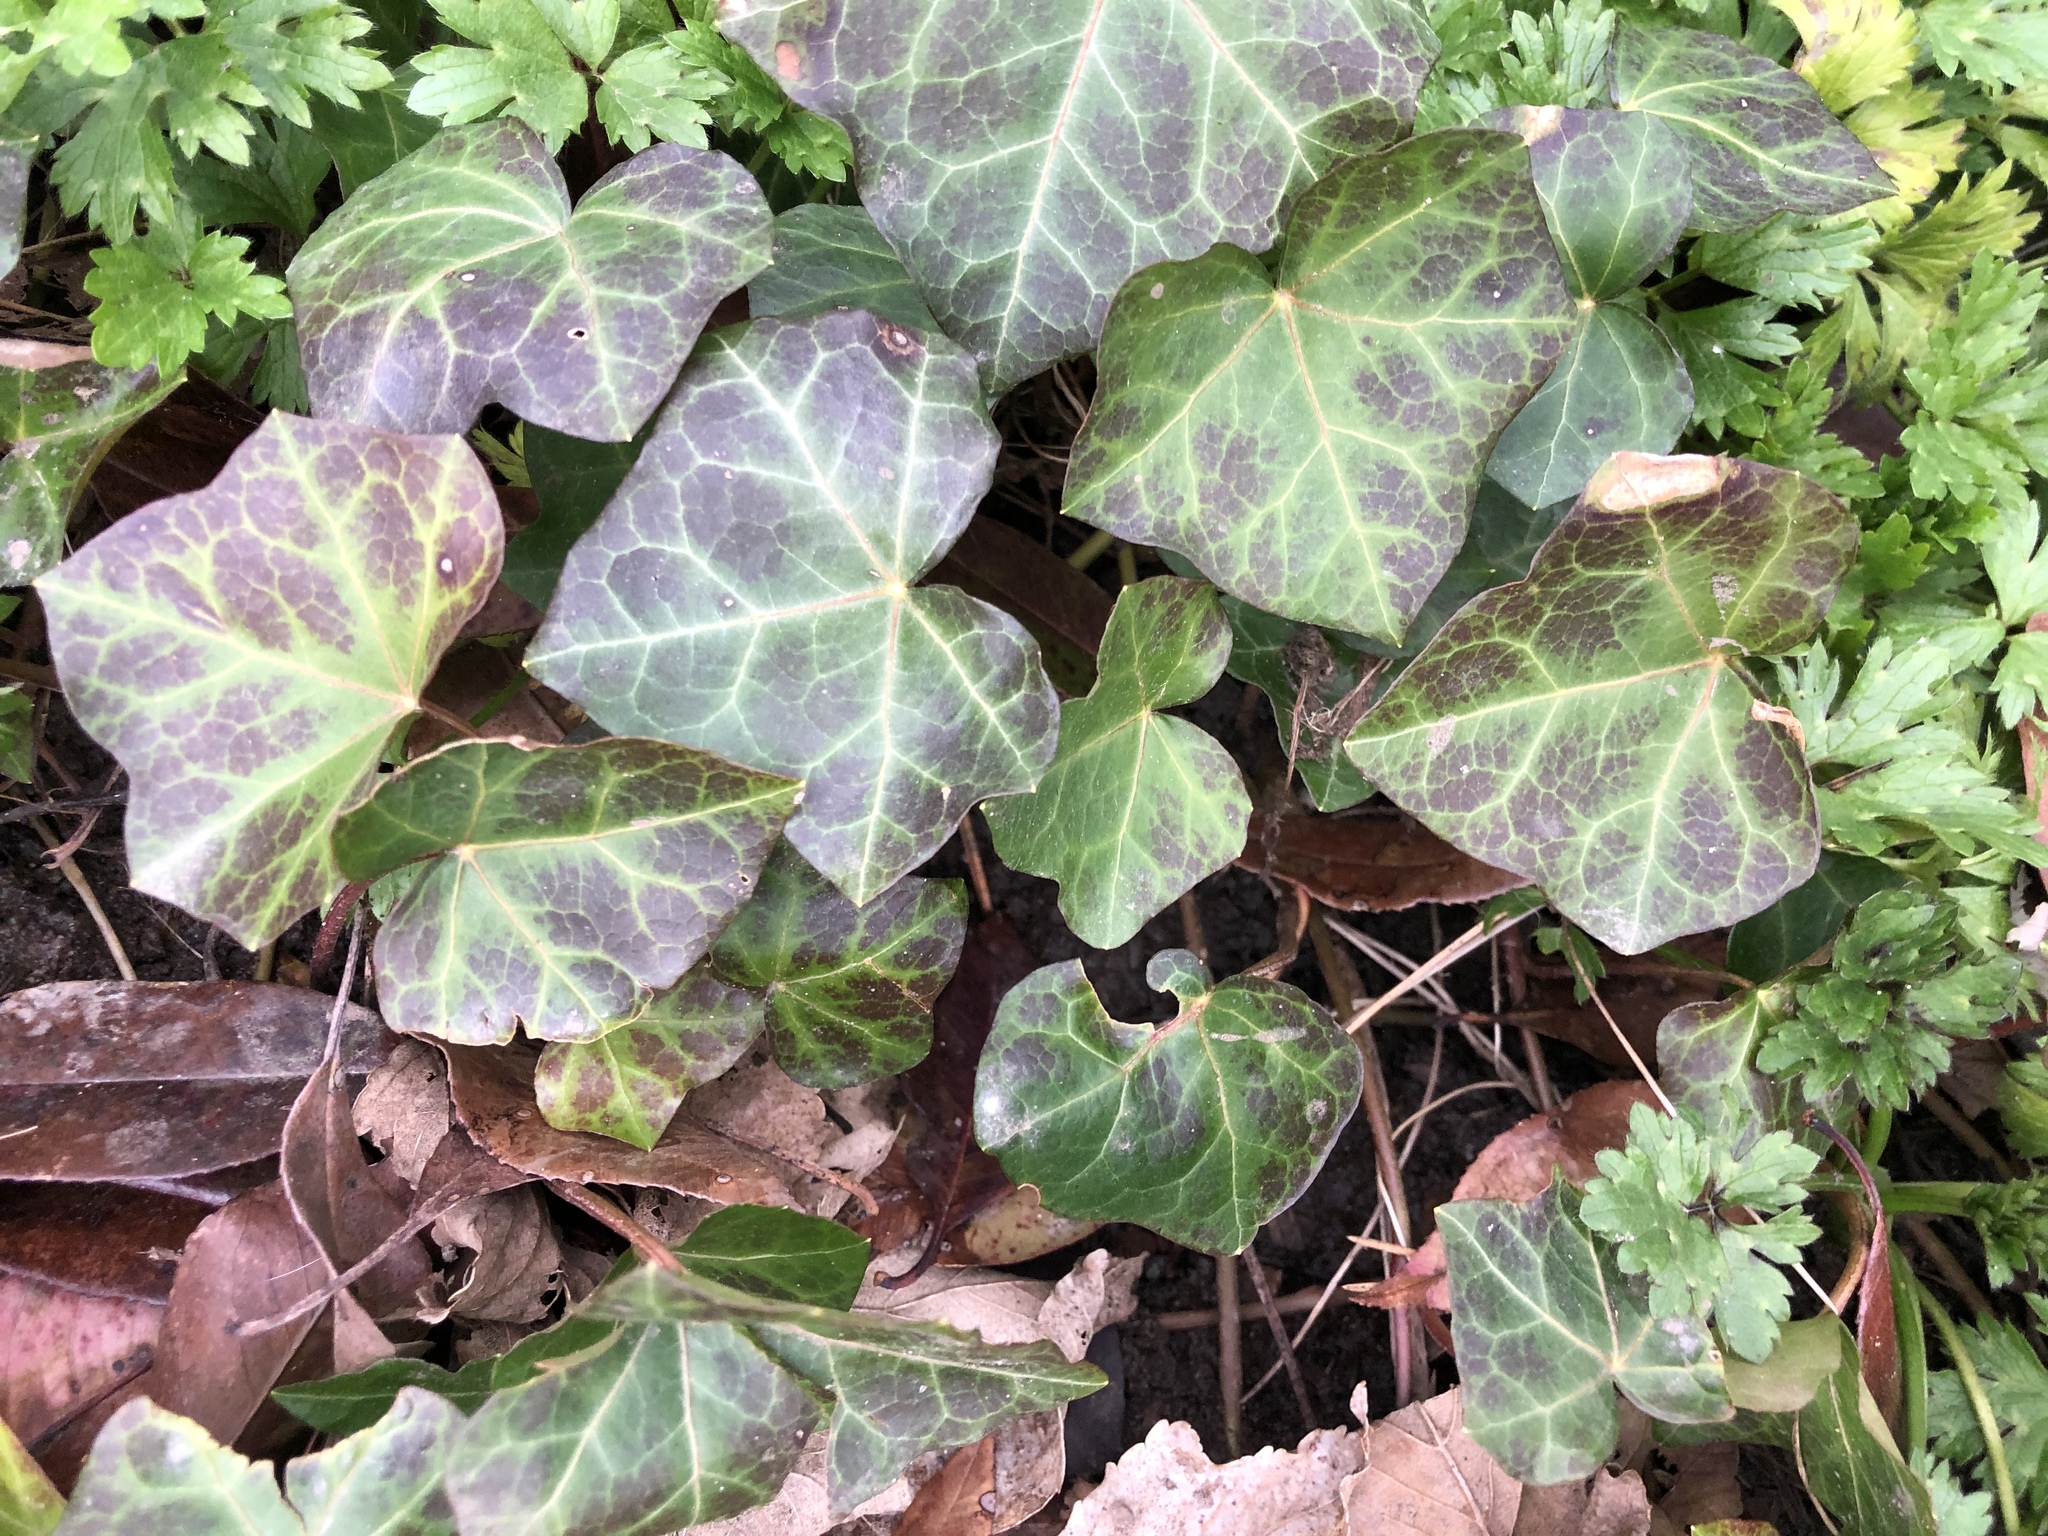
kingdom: Plantae
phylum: Tracheophyta
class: Magnoliopsida
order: Apiales
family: Araliaceae
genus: Hedera
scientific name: Hedera helix
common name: Ivy
